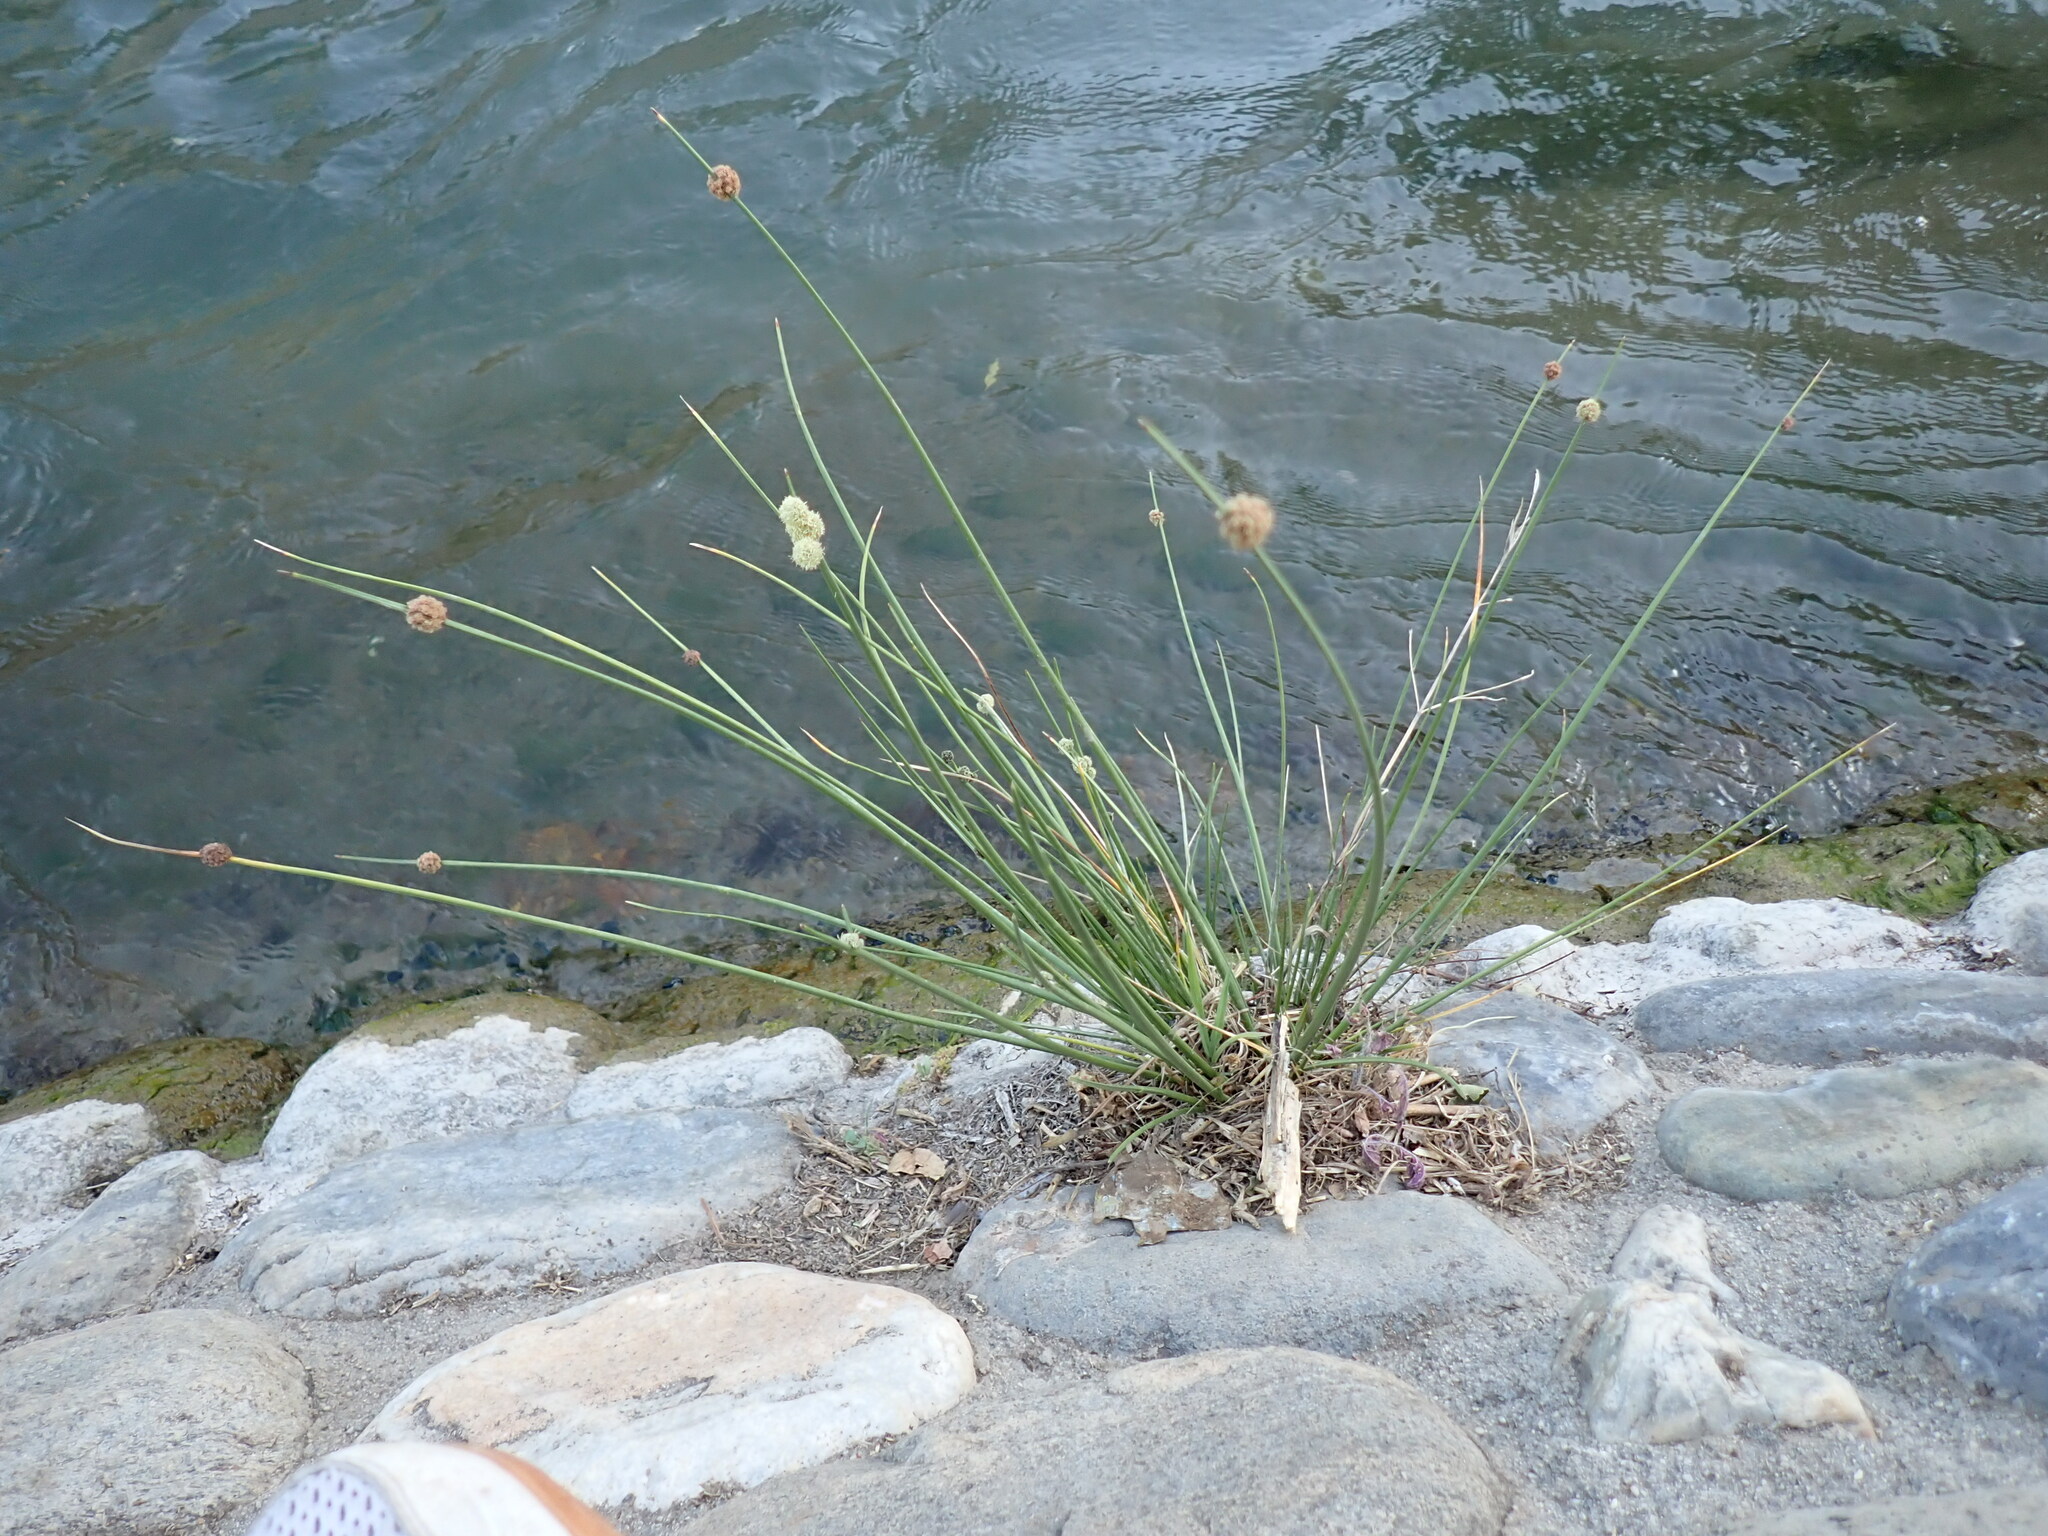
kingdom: Plantae
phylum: Tracheophyta
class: Liliopsida
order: Poales
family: Cyperaceae
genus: Scirpoides
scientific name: Scirpoides holoschoenus
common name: Round-headed club-rush
